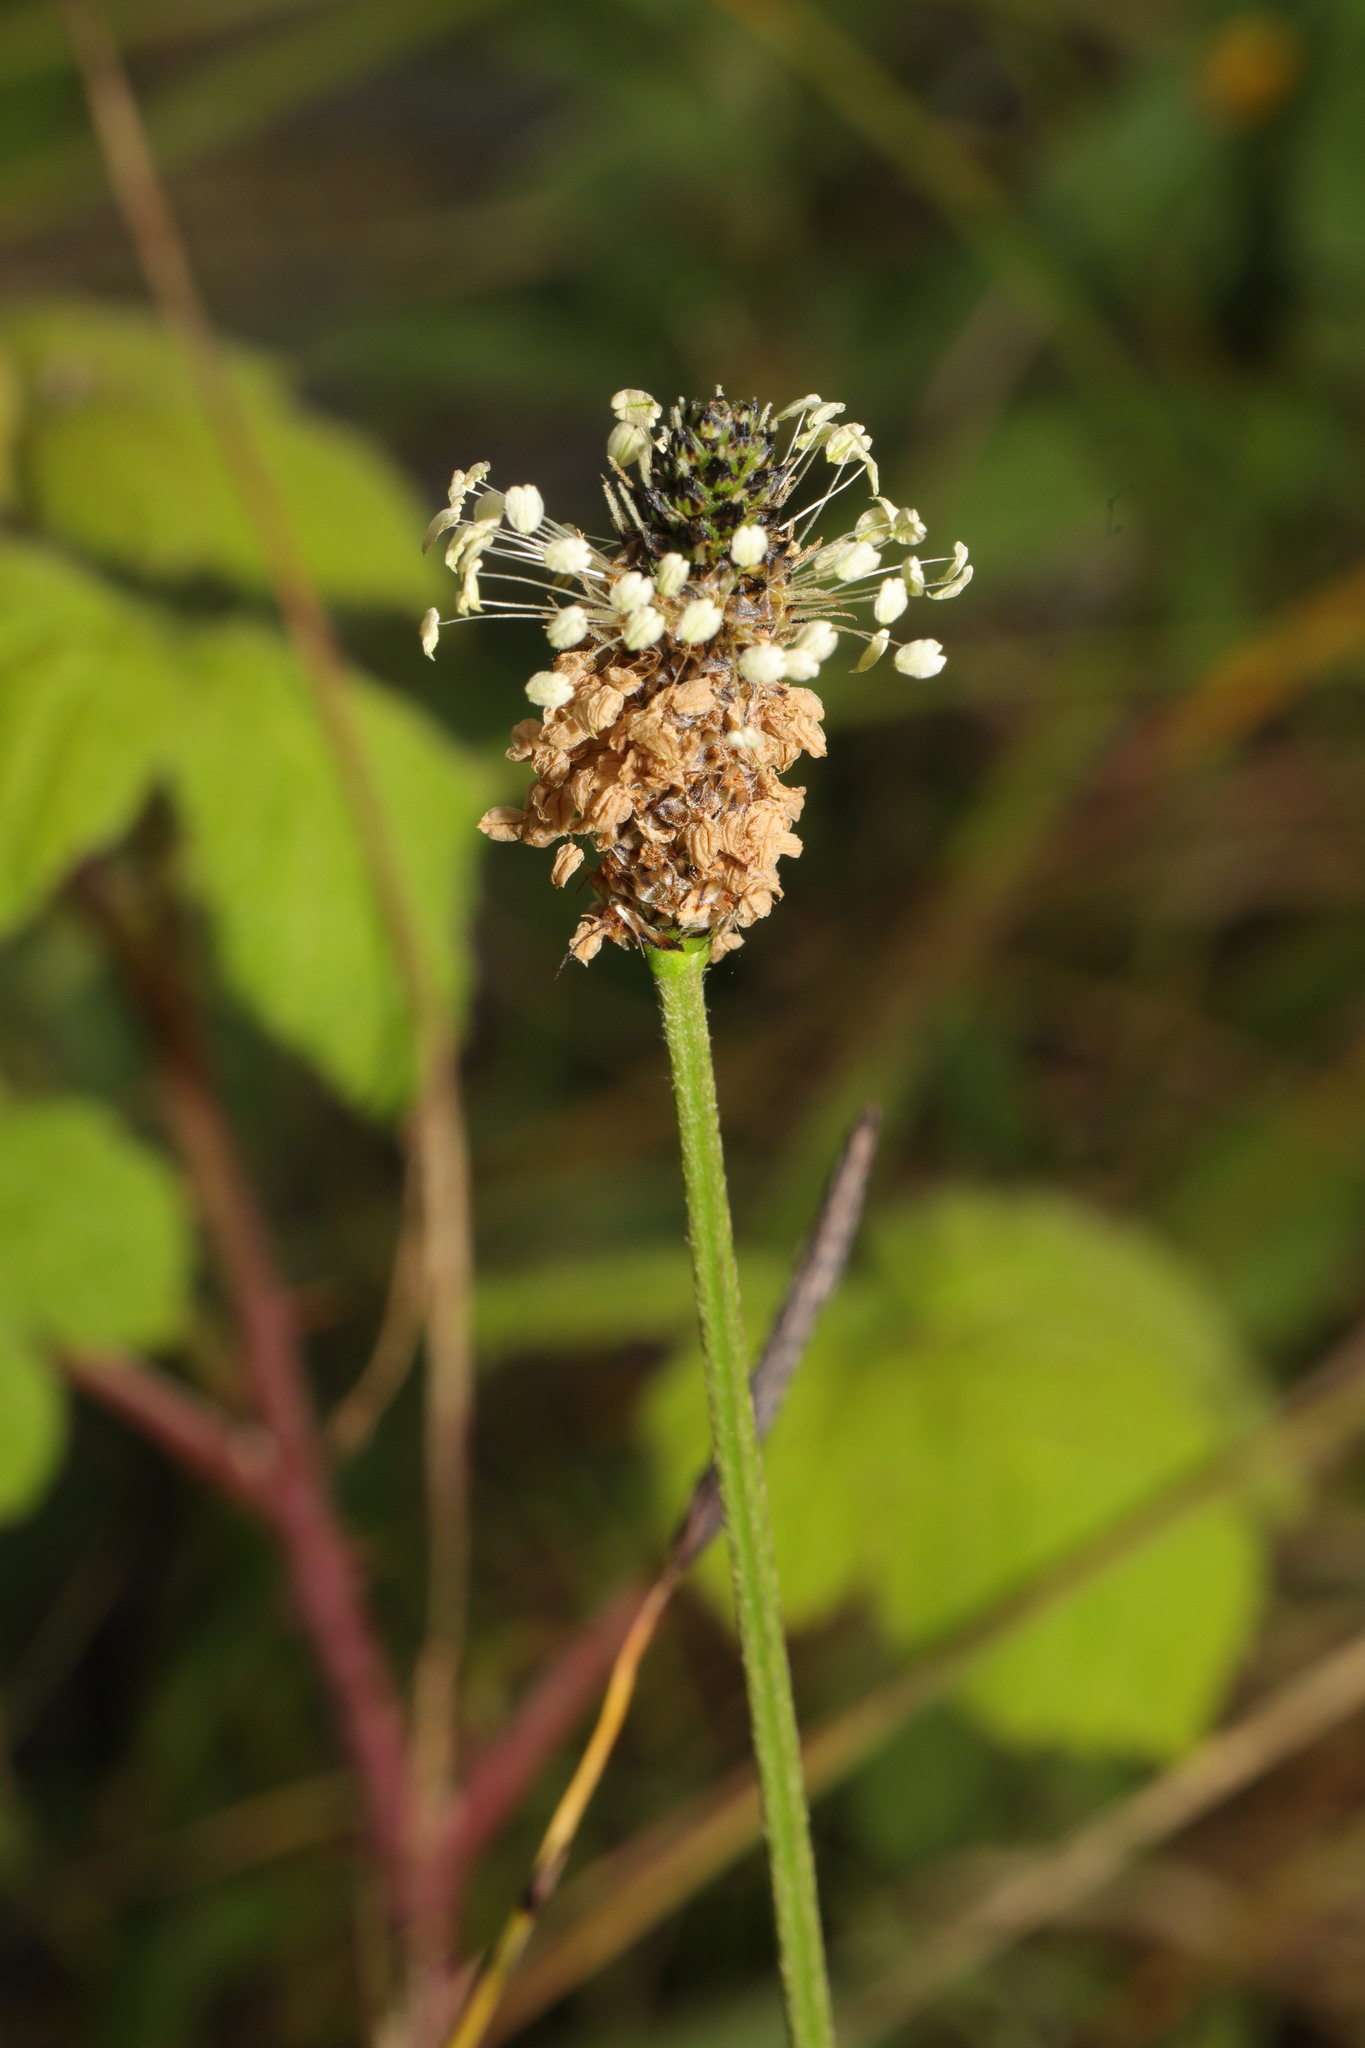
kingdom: Plantae
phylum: Tracheophyta
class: Magnoliopsida
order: Lamiales
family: Plantaginaceae
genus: Plantago
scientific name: Plantago lanceolata
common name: Ribwort plantain
